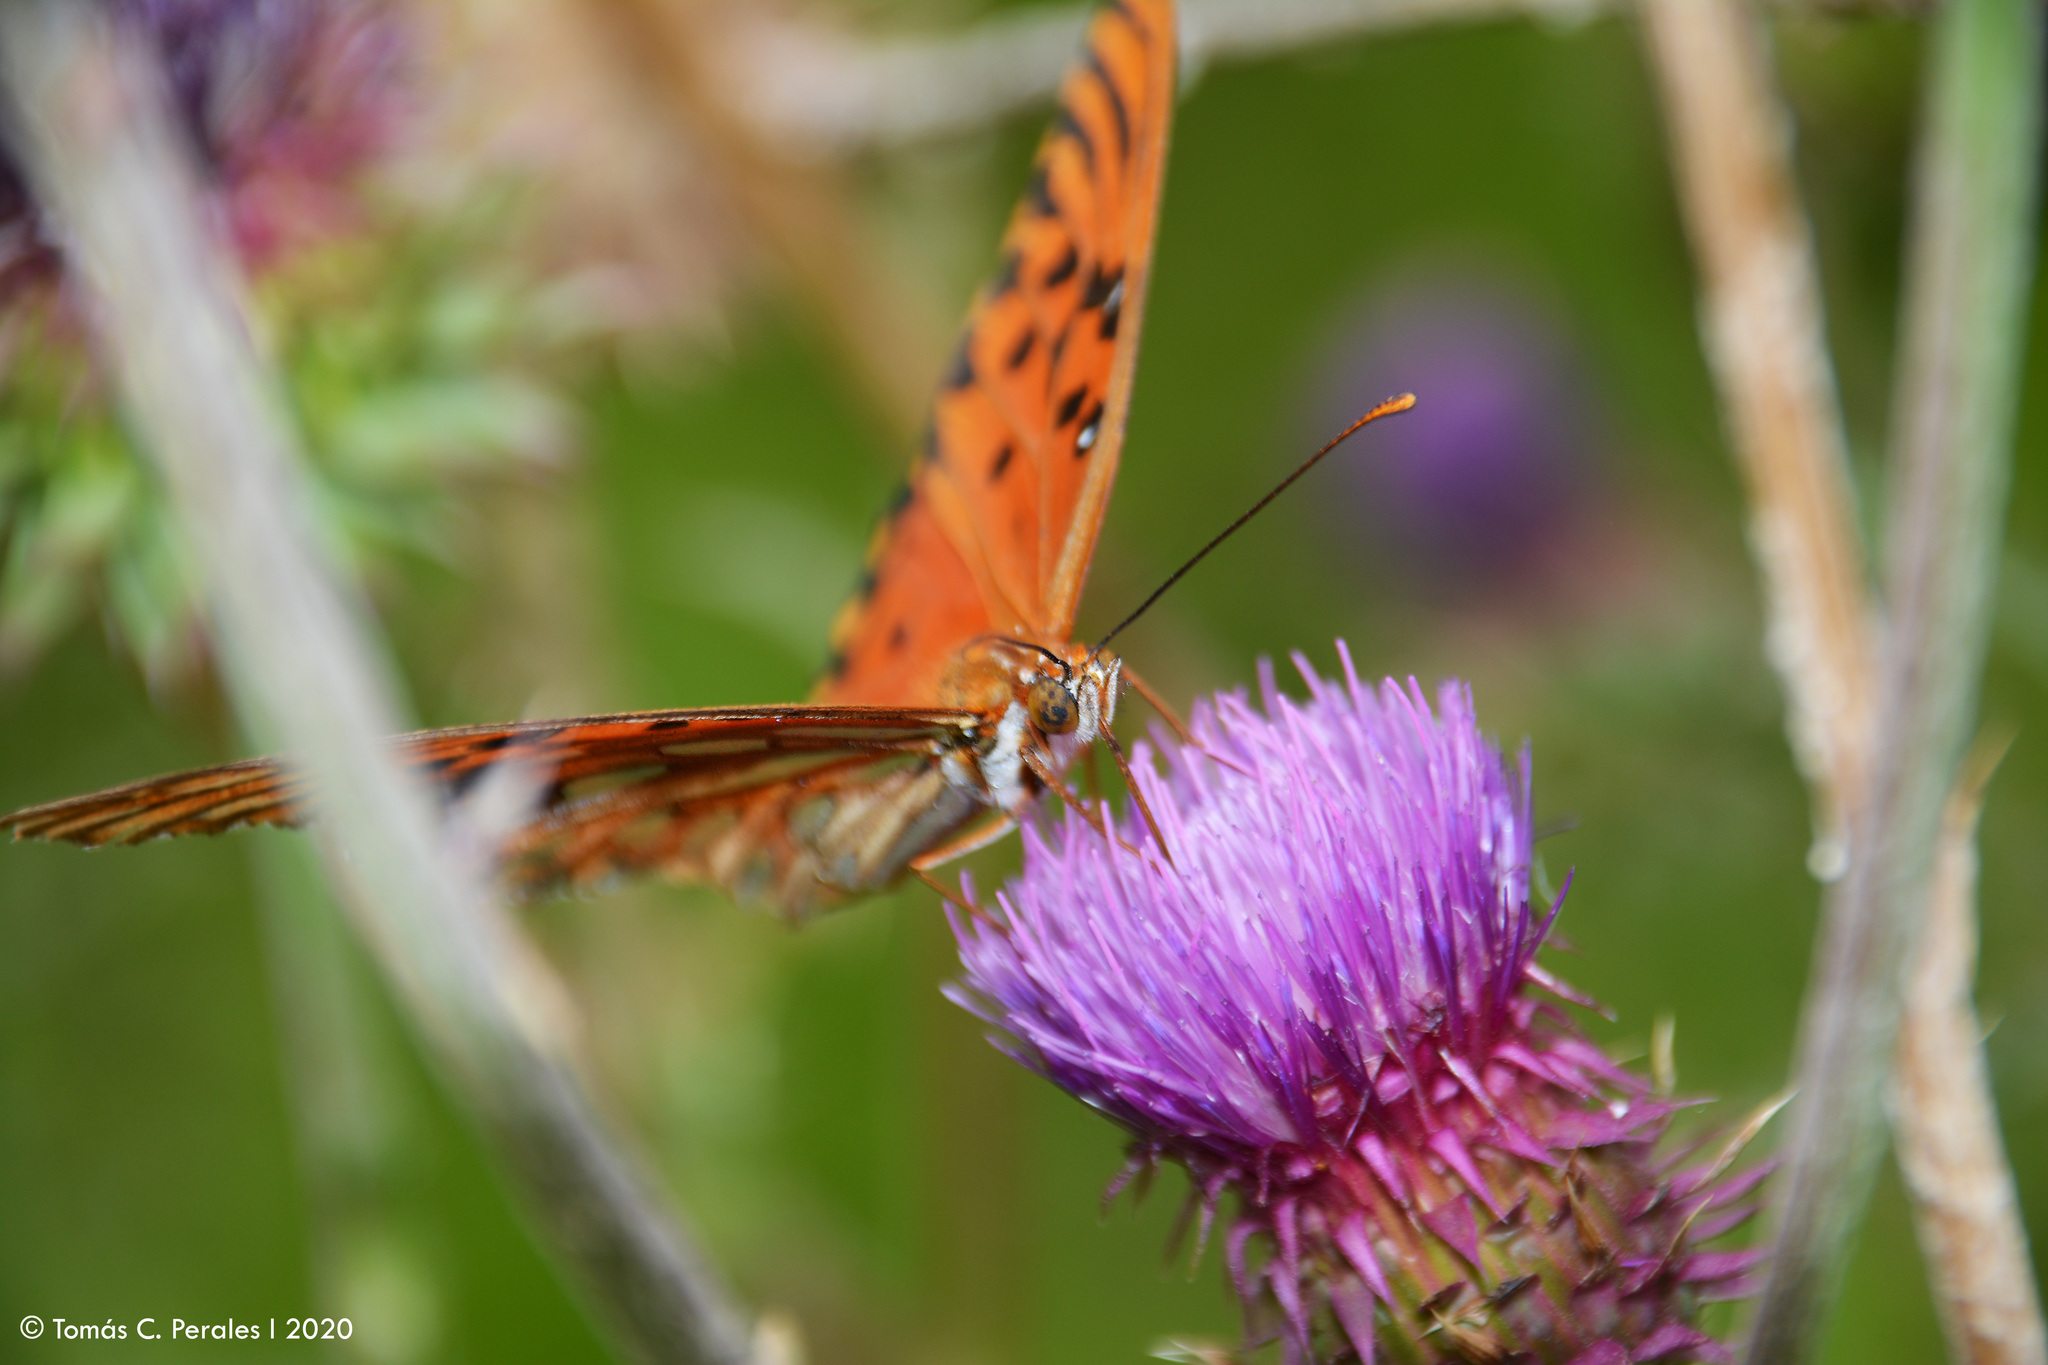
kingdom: Animalia
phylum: Arthropoda
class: Insecta
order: Lepidoptera
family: Nymphalidae
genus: Dione
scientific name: Dione vanillae
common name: Gulf fritillary
